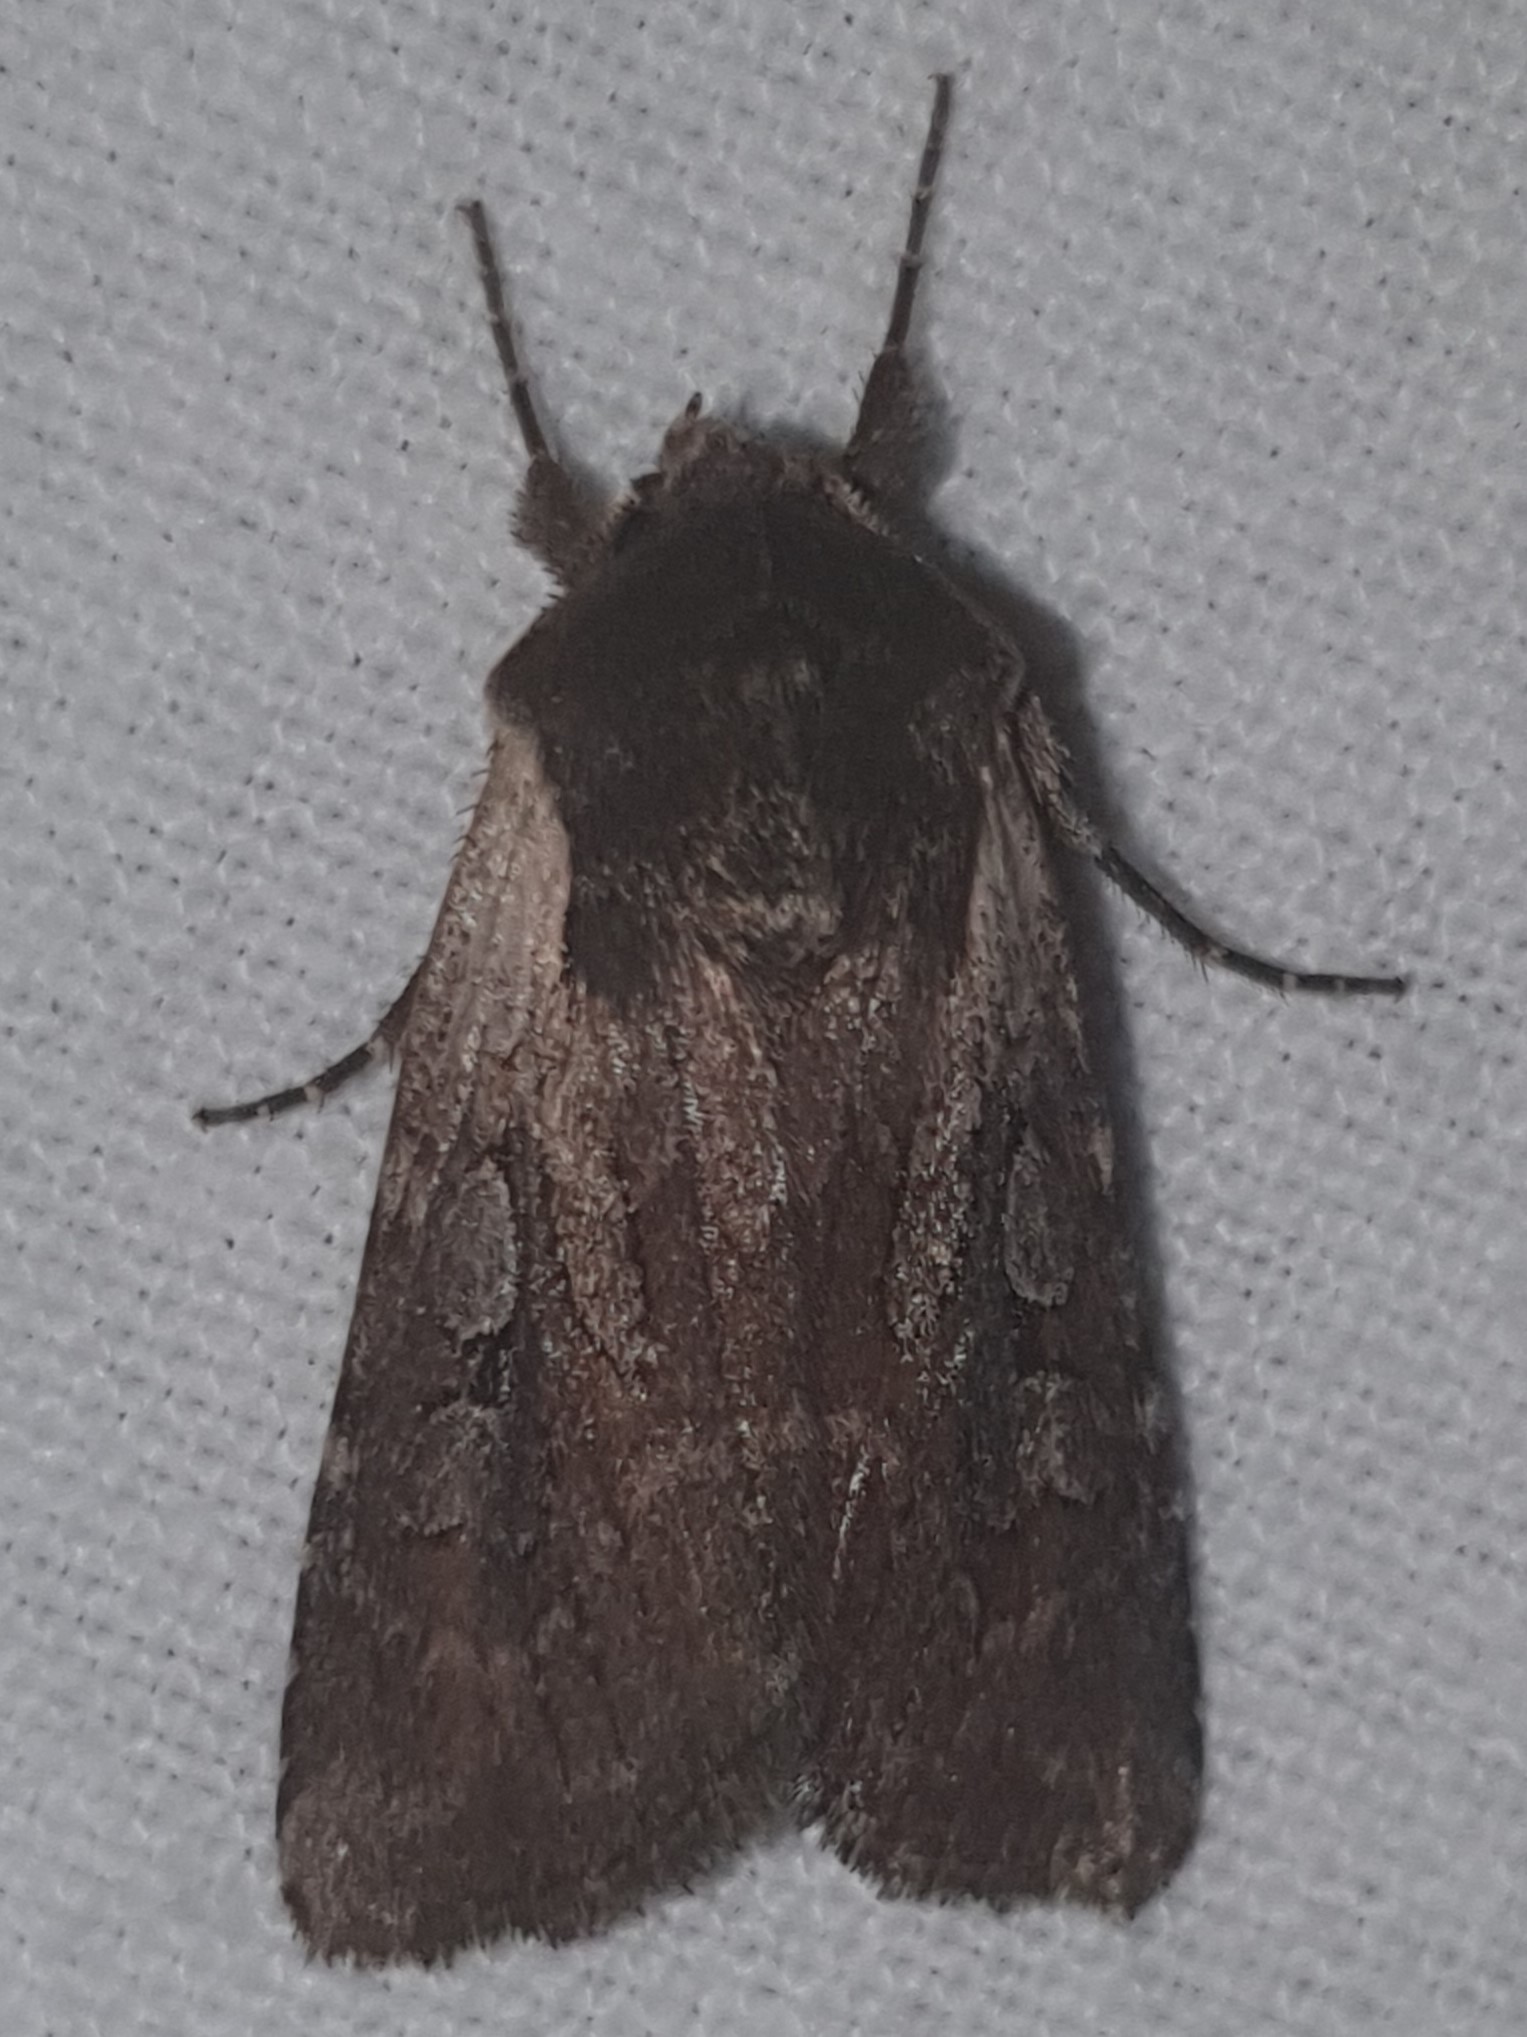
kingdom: Animalia
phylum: Arthropoda
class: Insecta
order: Lepidoptera
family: Noctuidae
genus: Lycophotia
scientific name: Lycophotia molothina
